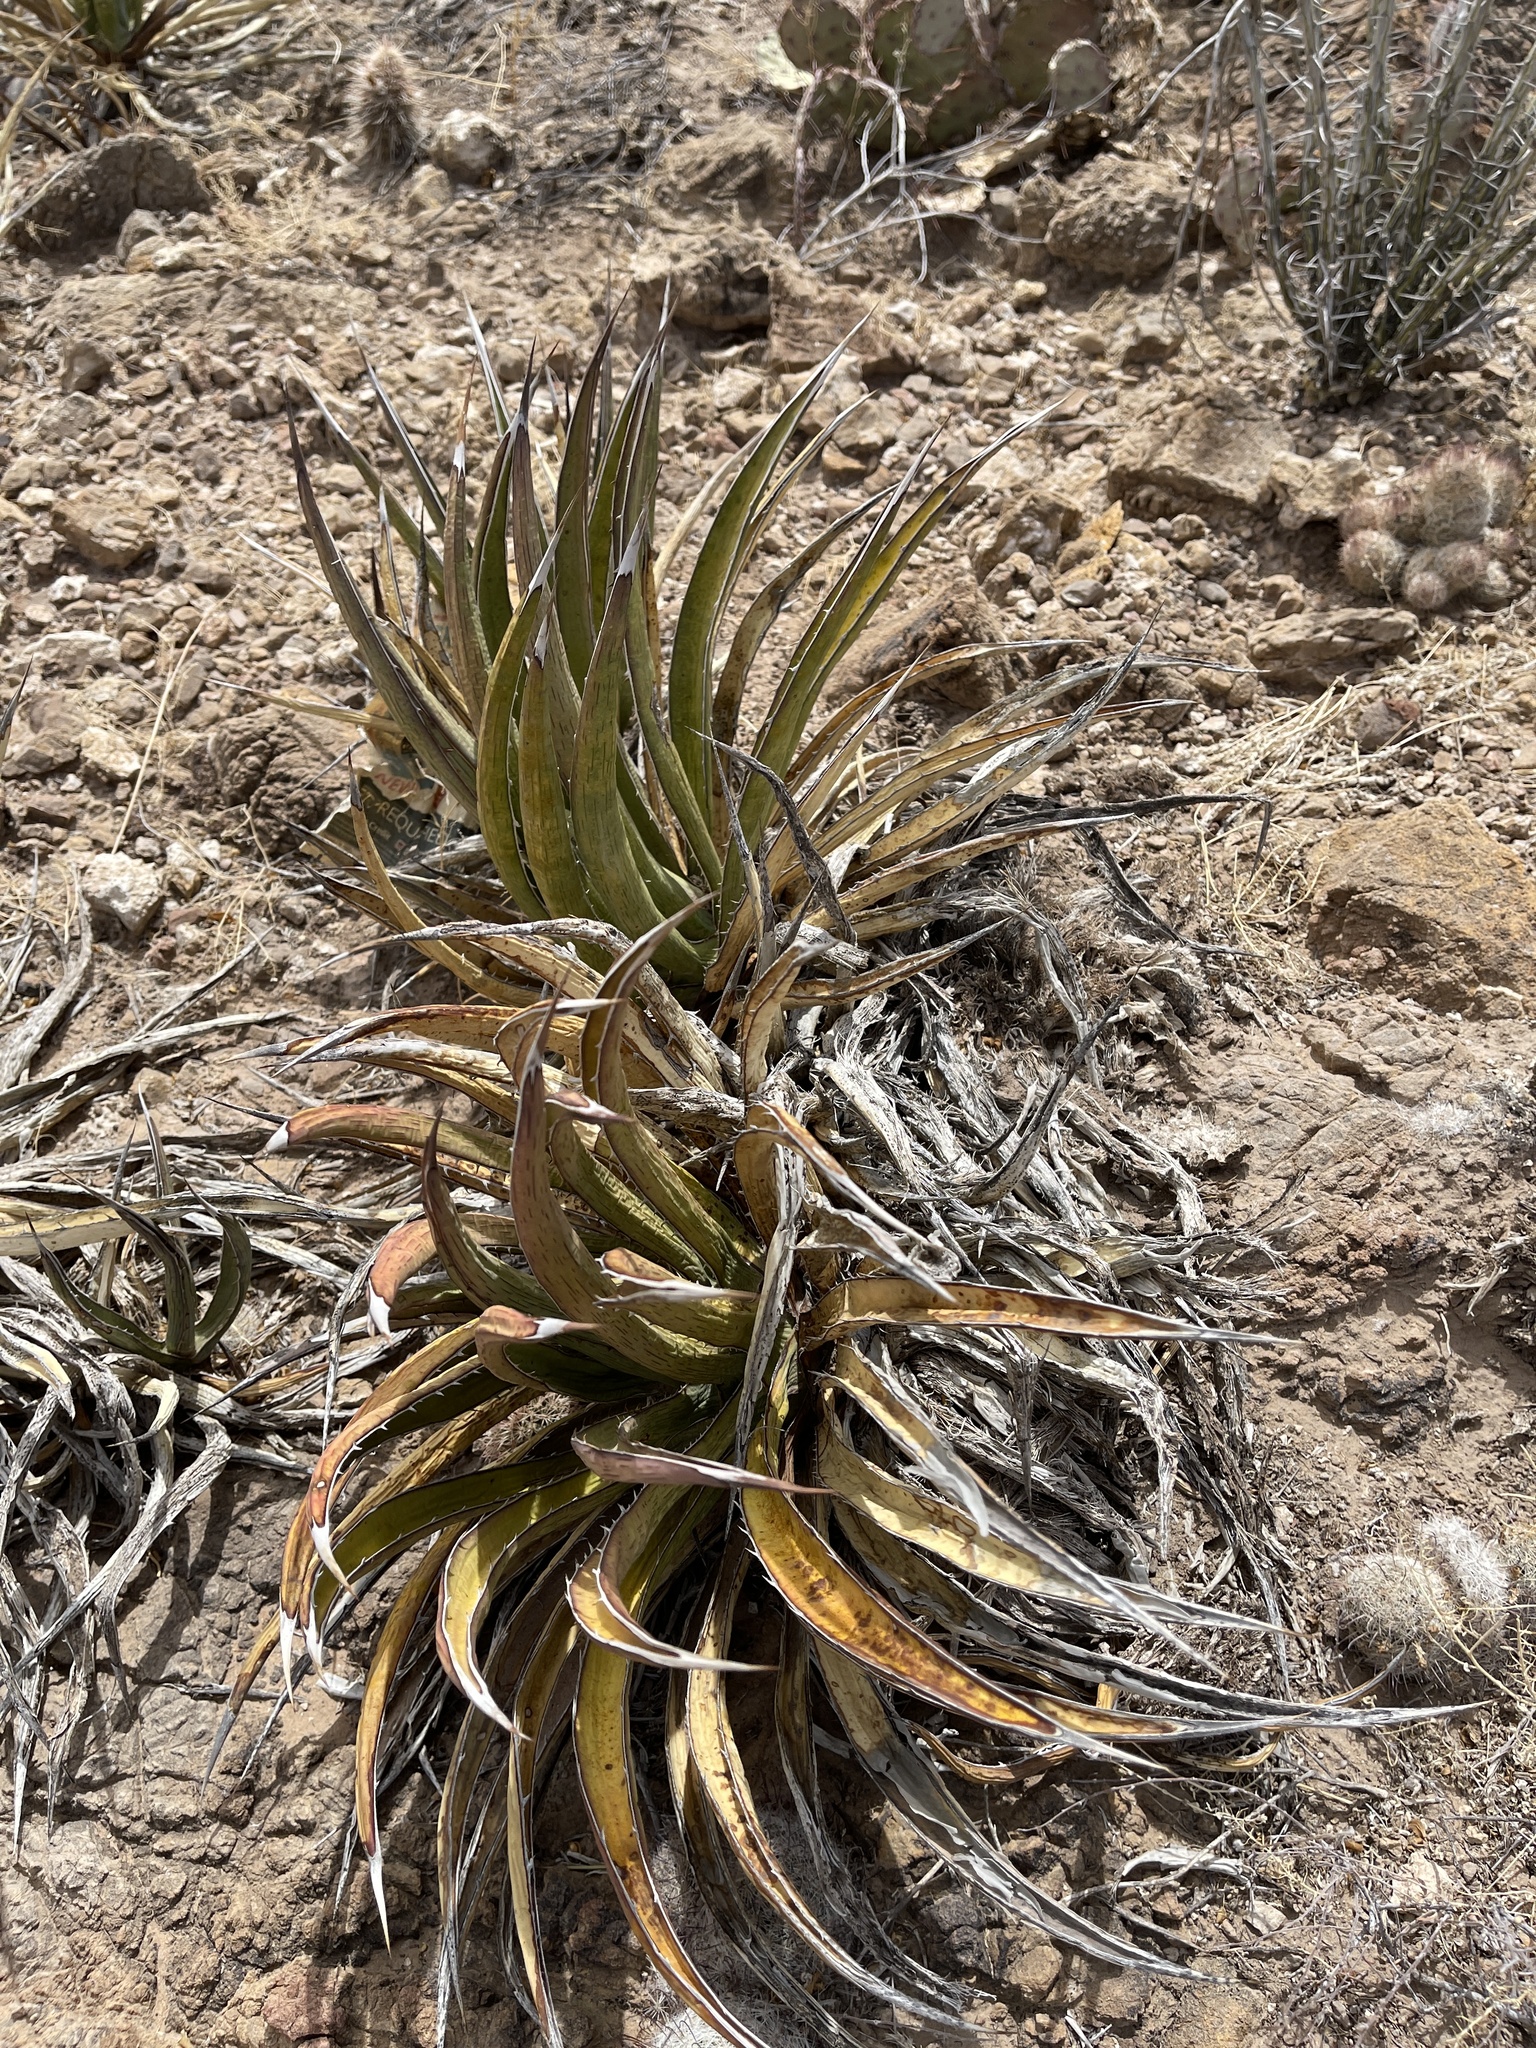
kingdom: Plantae
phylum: Tracheophyta
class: Liliopsida
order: Asparagales
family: Asparagaceae
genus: Agave
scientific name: Agave lechuguilla
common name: Lecheguilla agave
